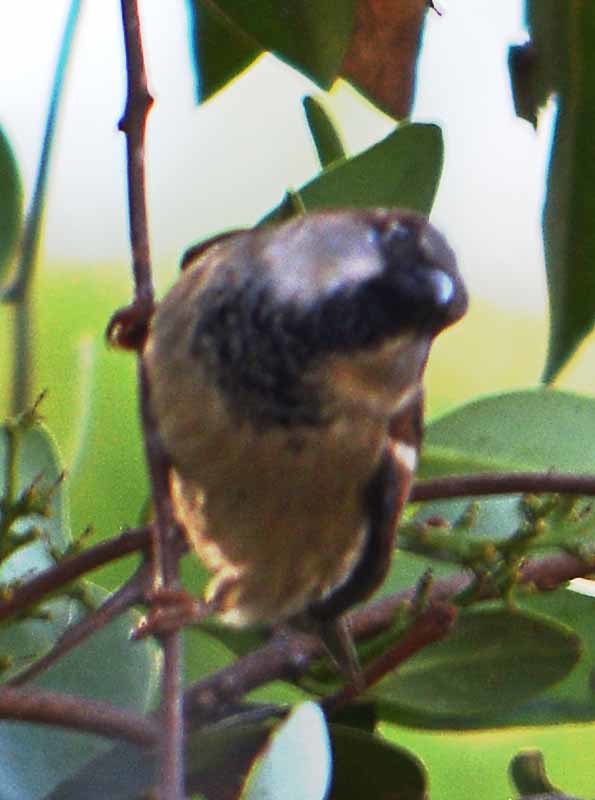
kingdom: Animalia
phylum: Chordata
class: Aves
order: Passeriformes
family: Passeridae
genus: Passer
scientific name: Passer domesticus
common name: House sparrow
